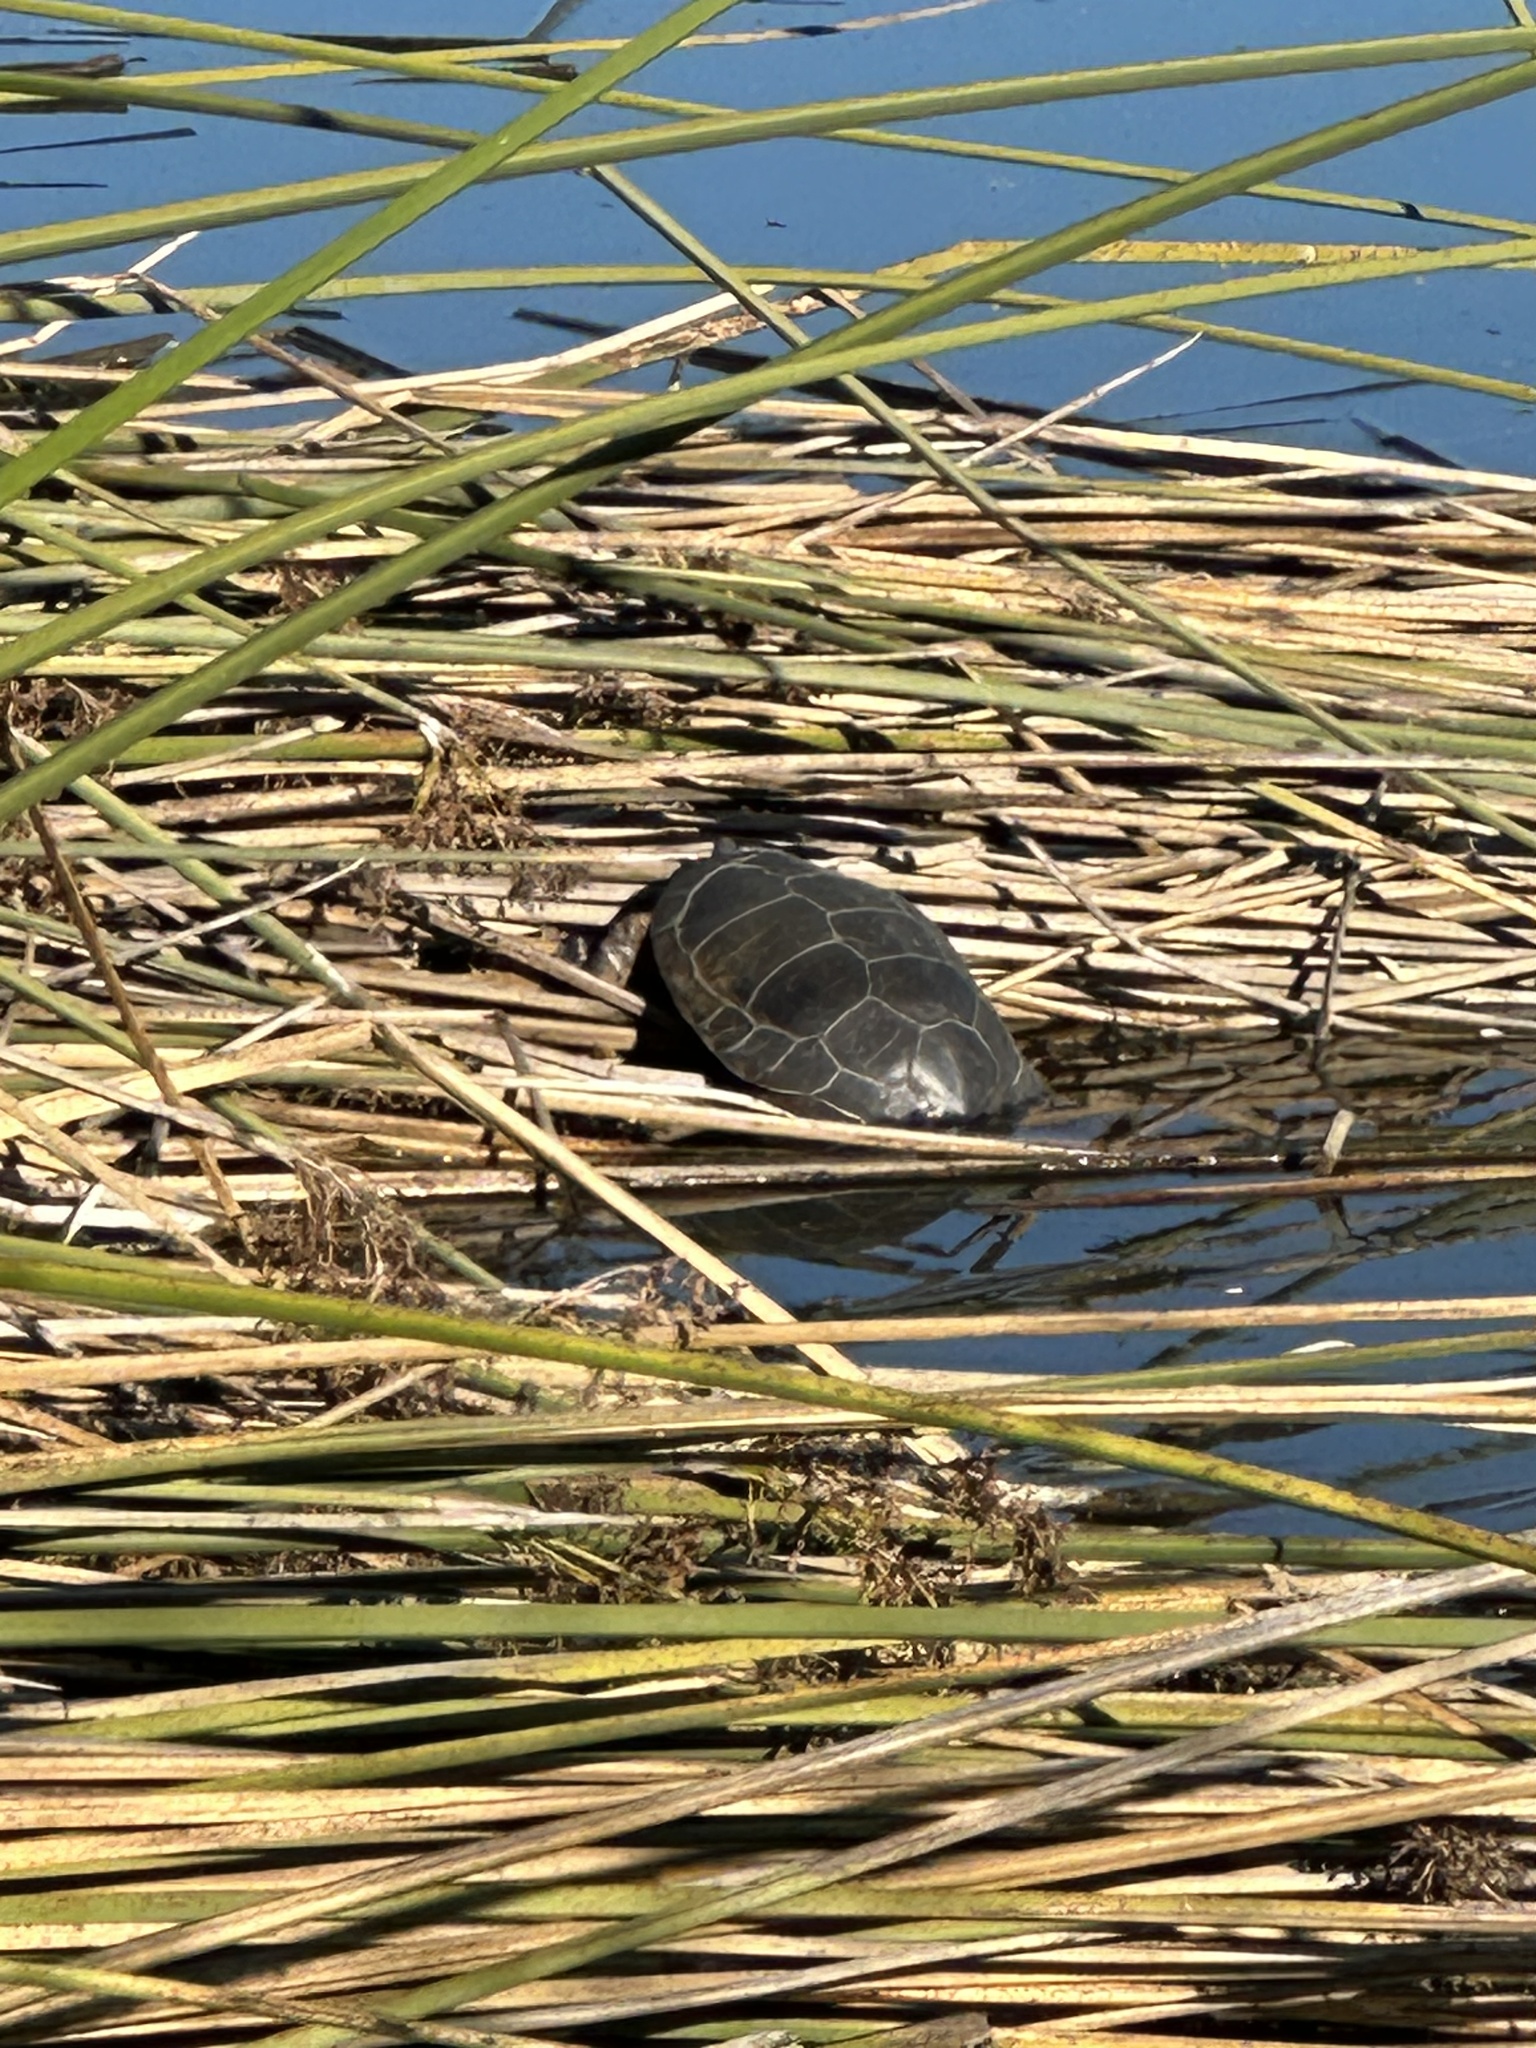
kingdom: Animalia
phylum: Chordata
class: Testudines
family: Emydidae
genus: Actinemys
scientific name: Actinemys marmorata
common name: Western pond turtle
